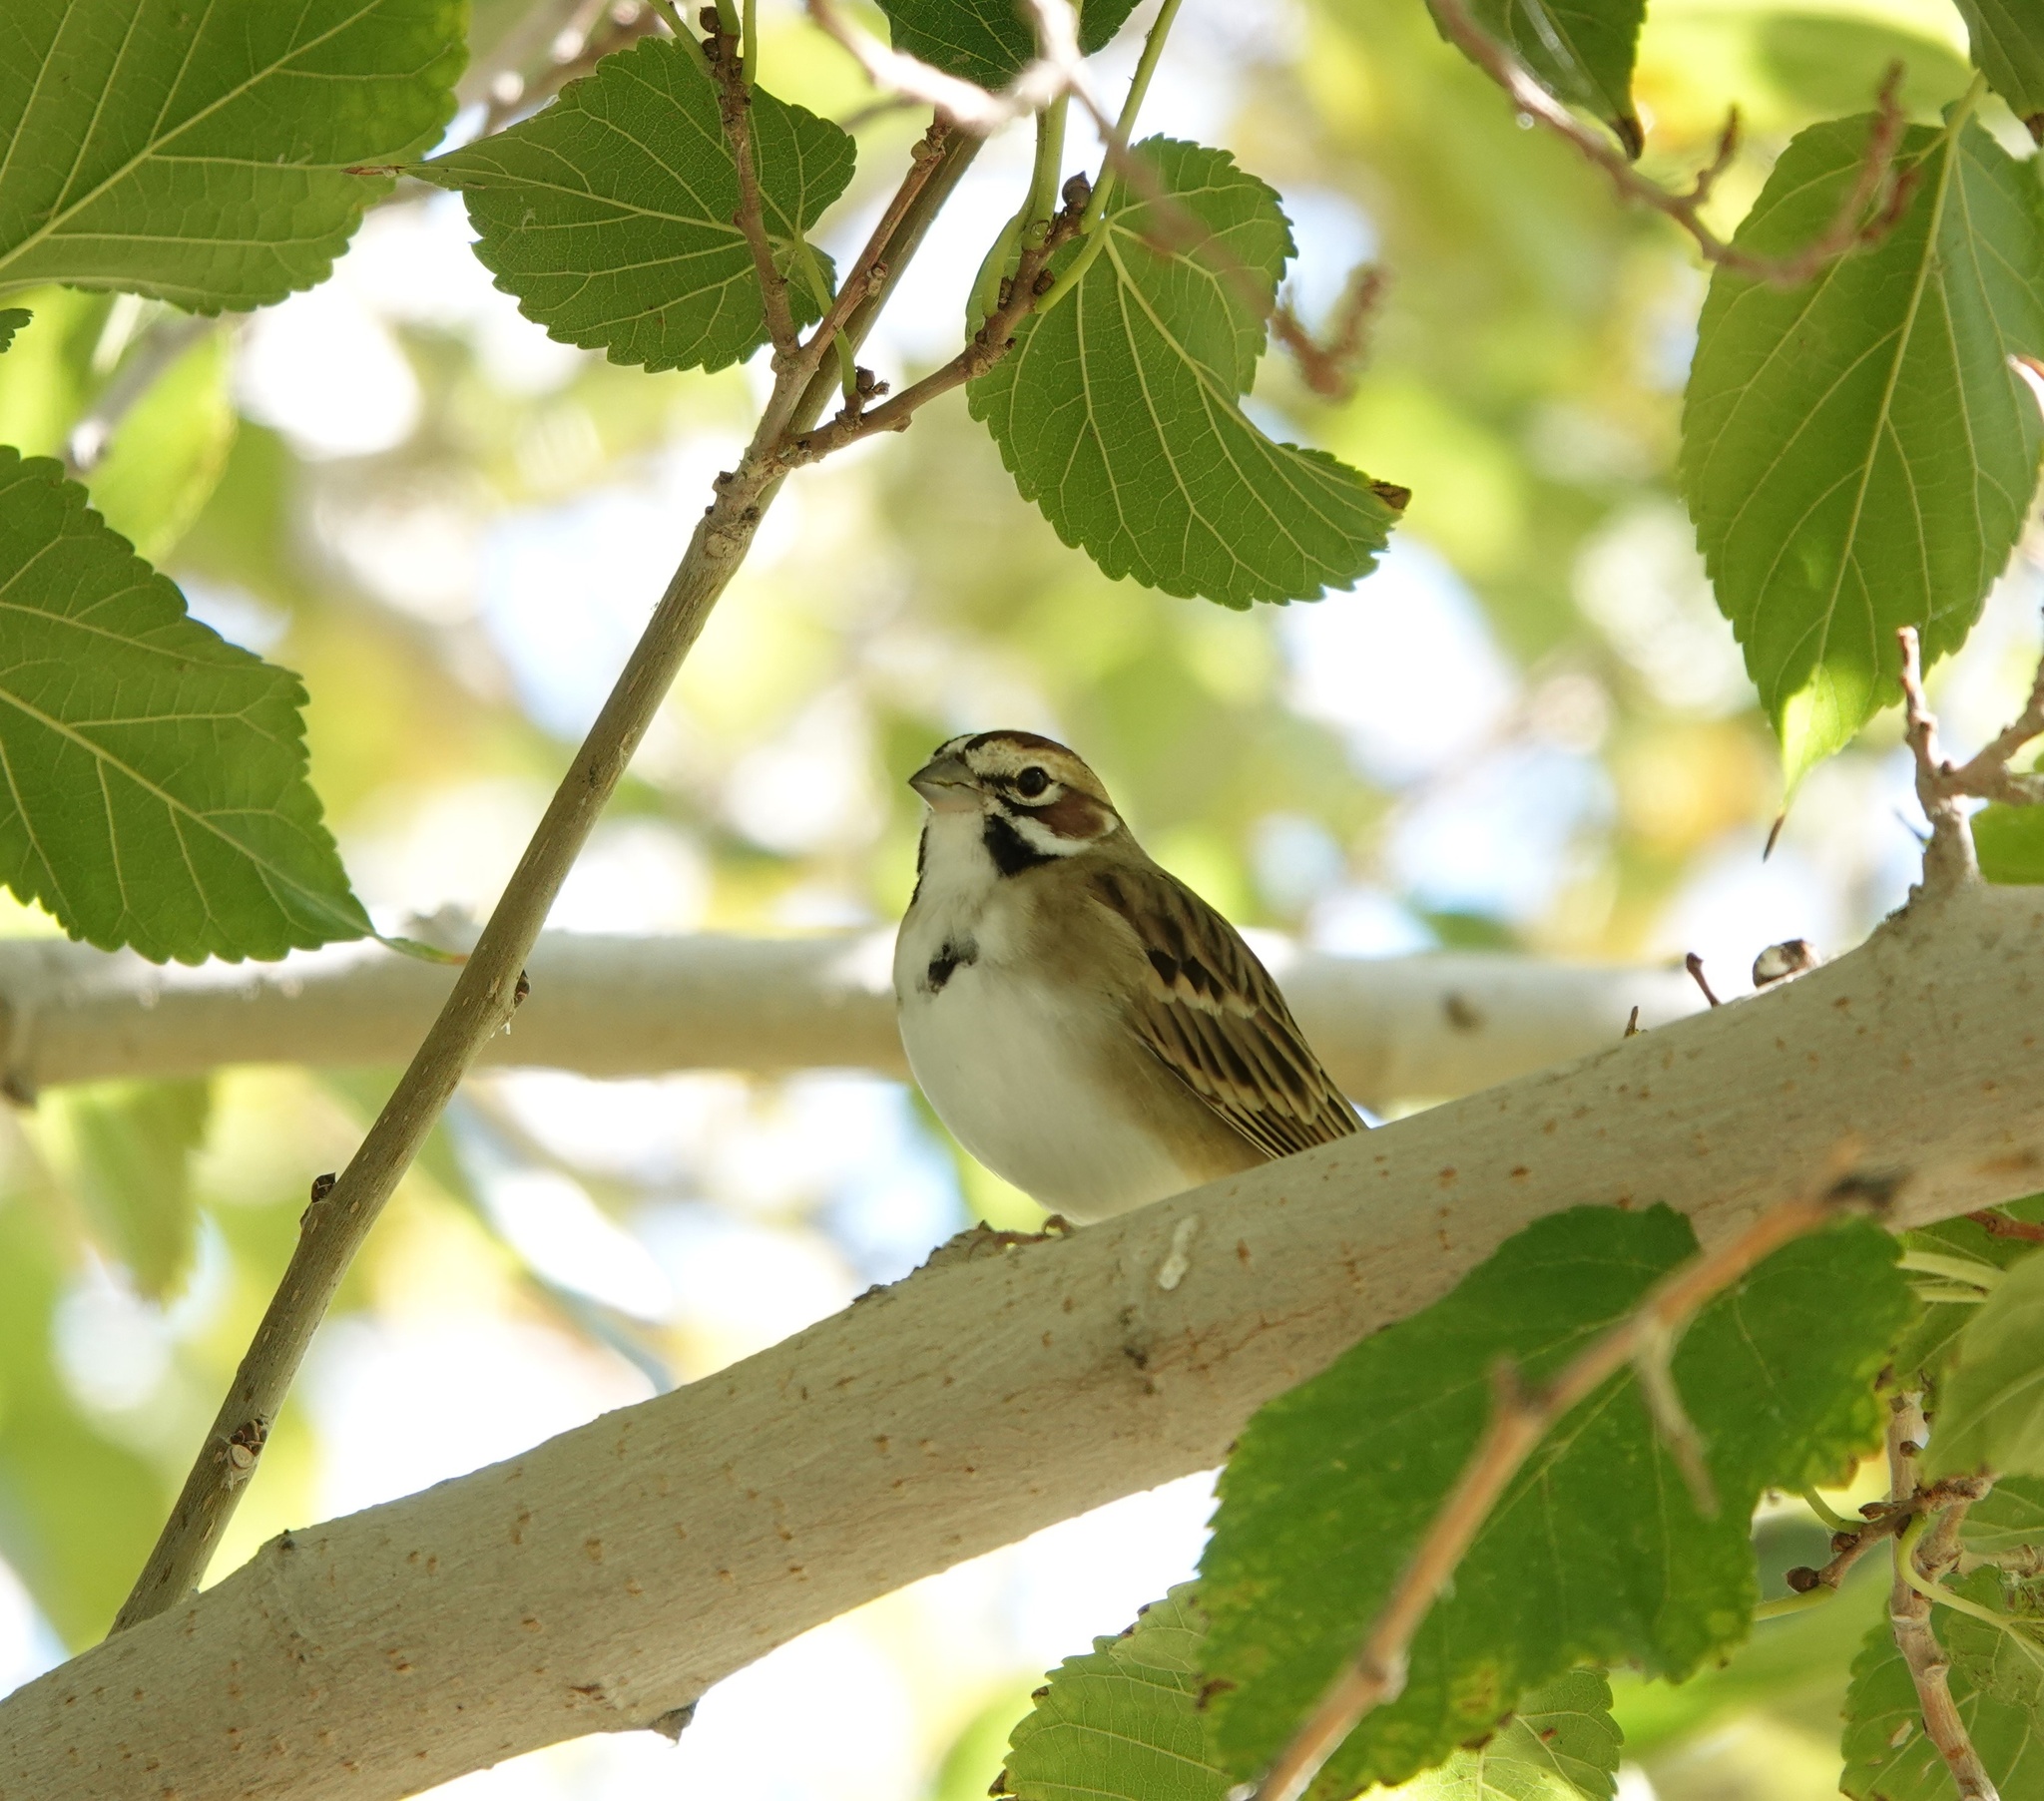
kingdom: Animalia
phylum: Chordata
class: Aves
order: Passeriformes
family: Passerellidae
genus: Chondestes
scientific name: Chondestes grammacus
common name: Lark sparrow
